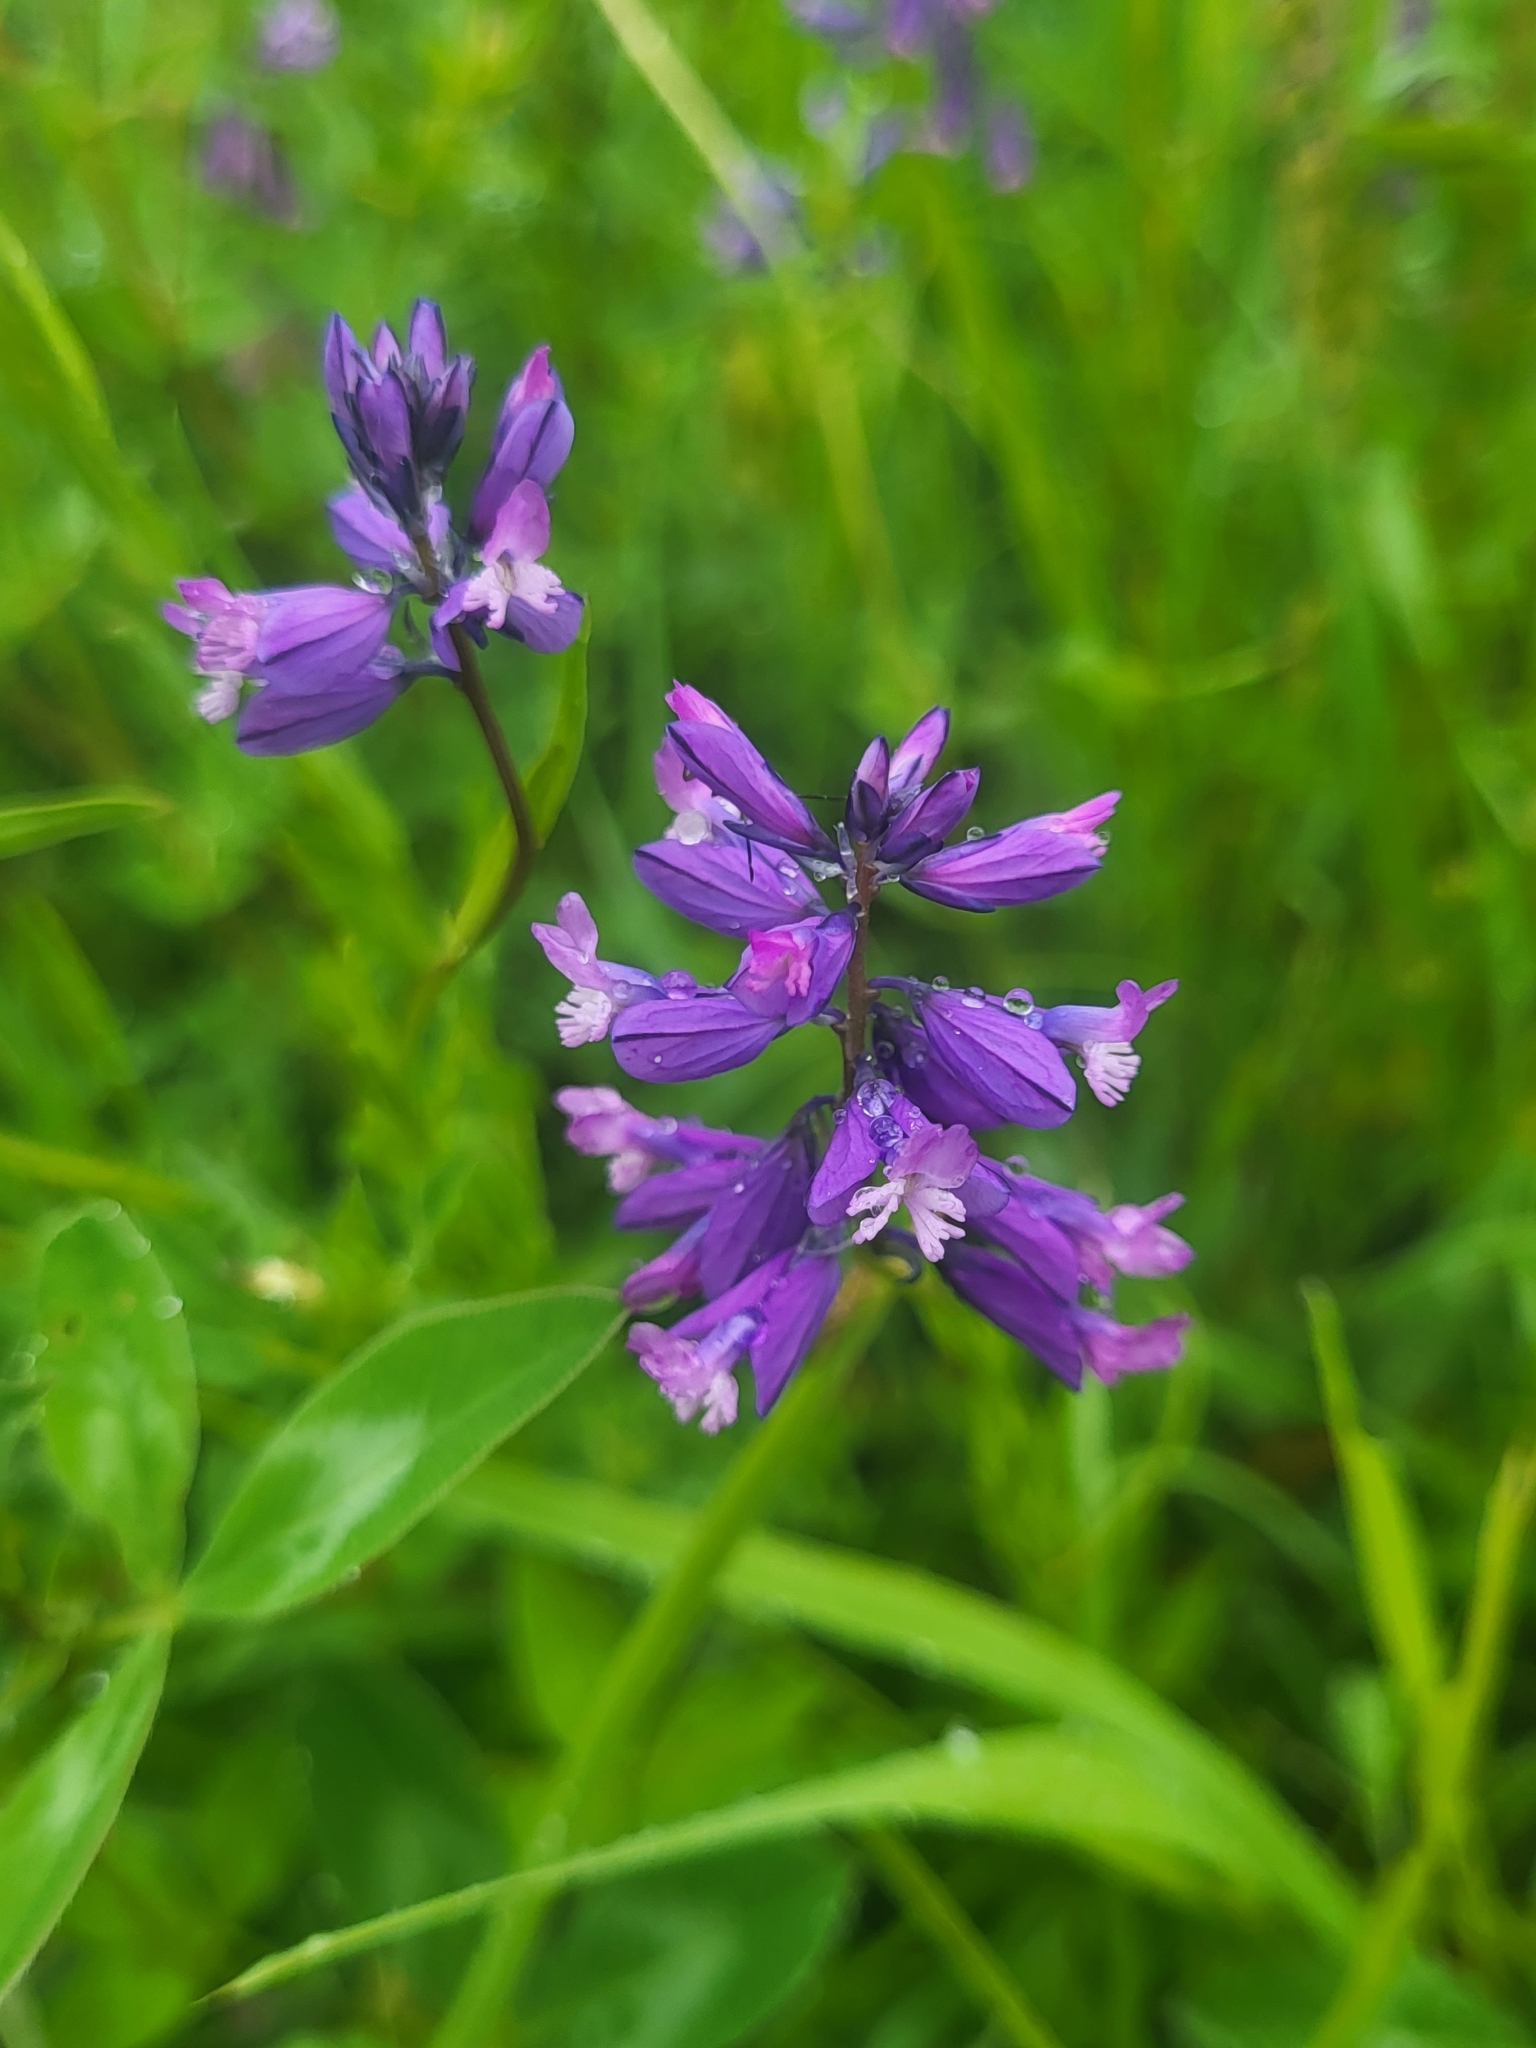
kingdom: Plantae
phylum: Tracheophyta
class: Magnoliopsida
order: Fabales
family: Polygalaceae
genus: Polygala
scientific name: Polygala major
